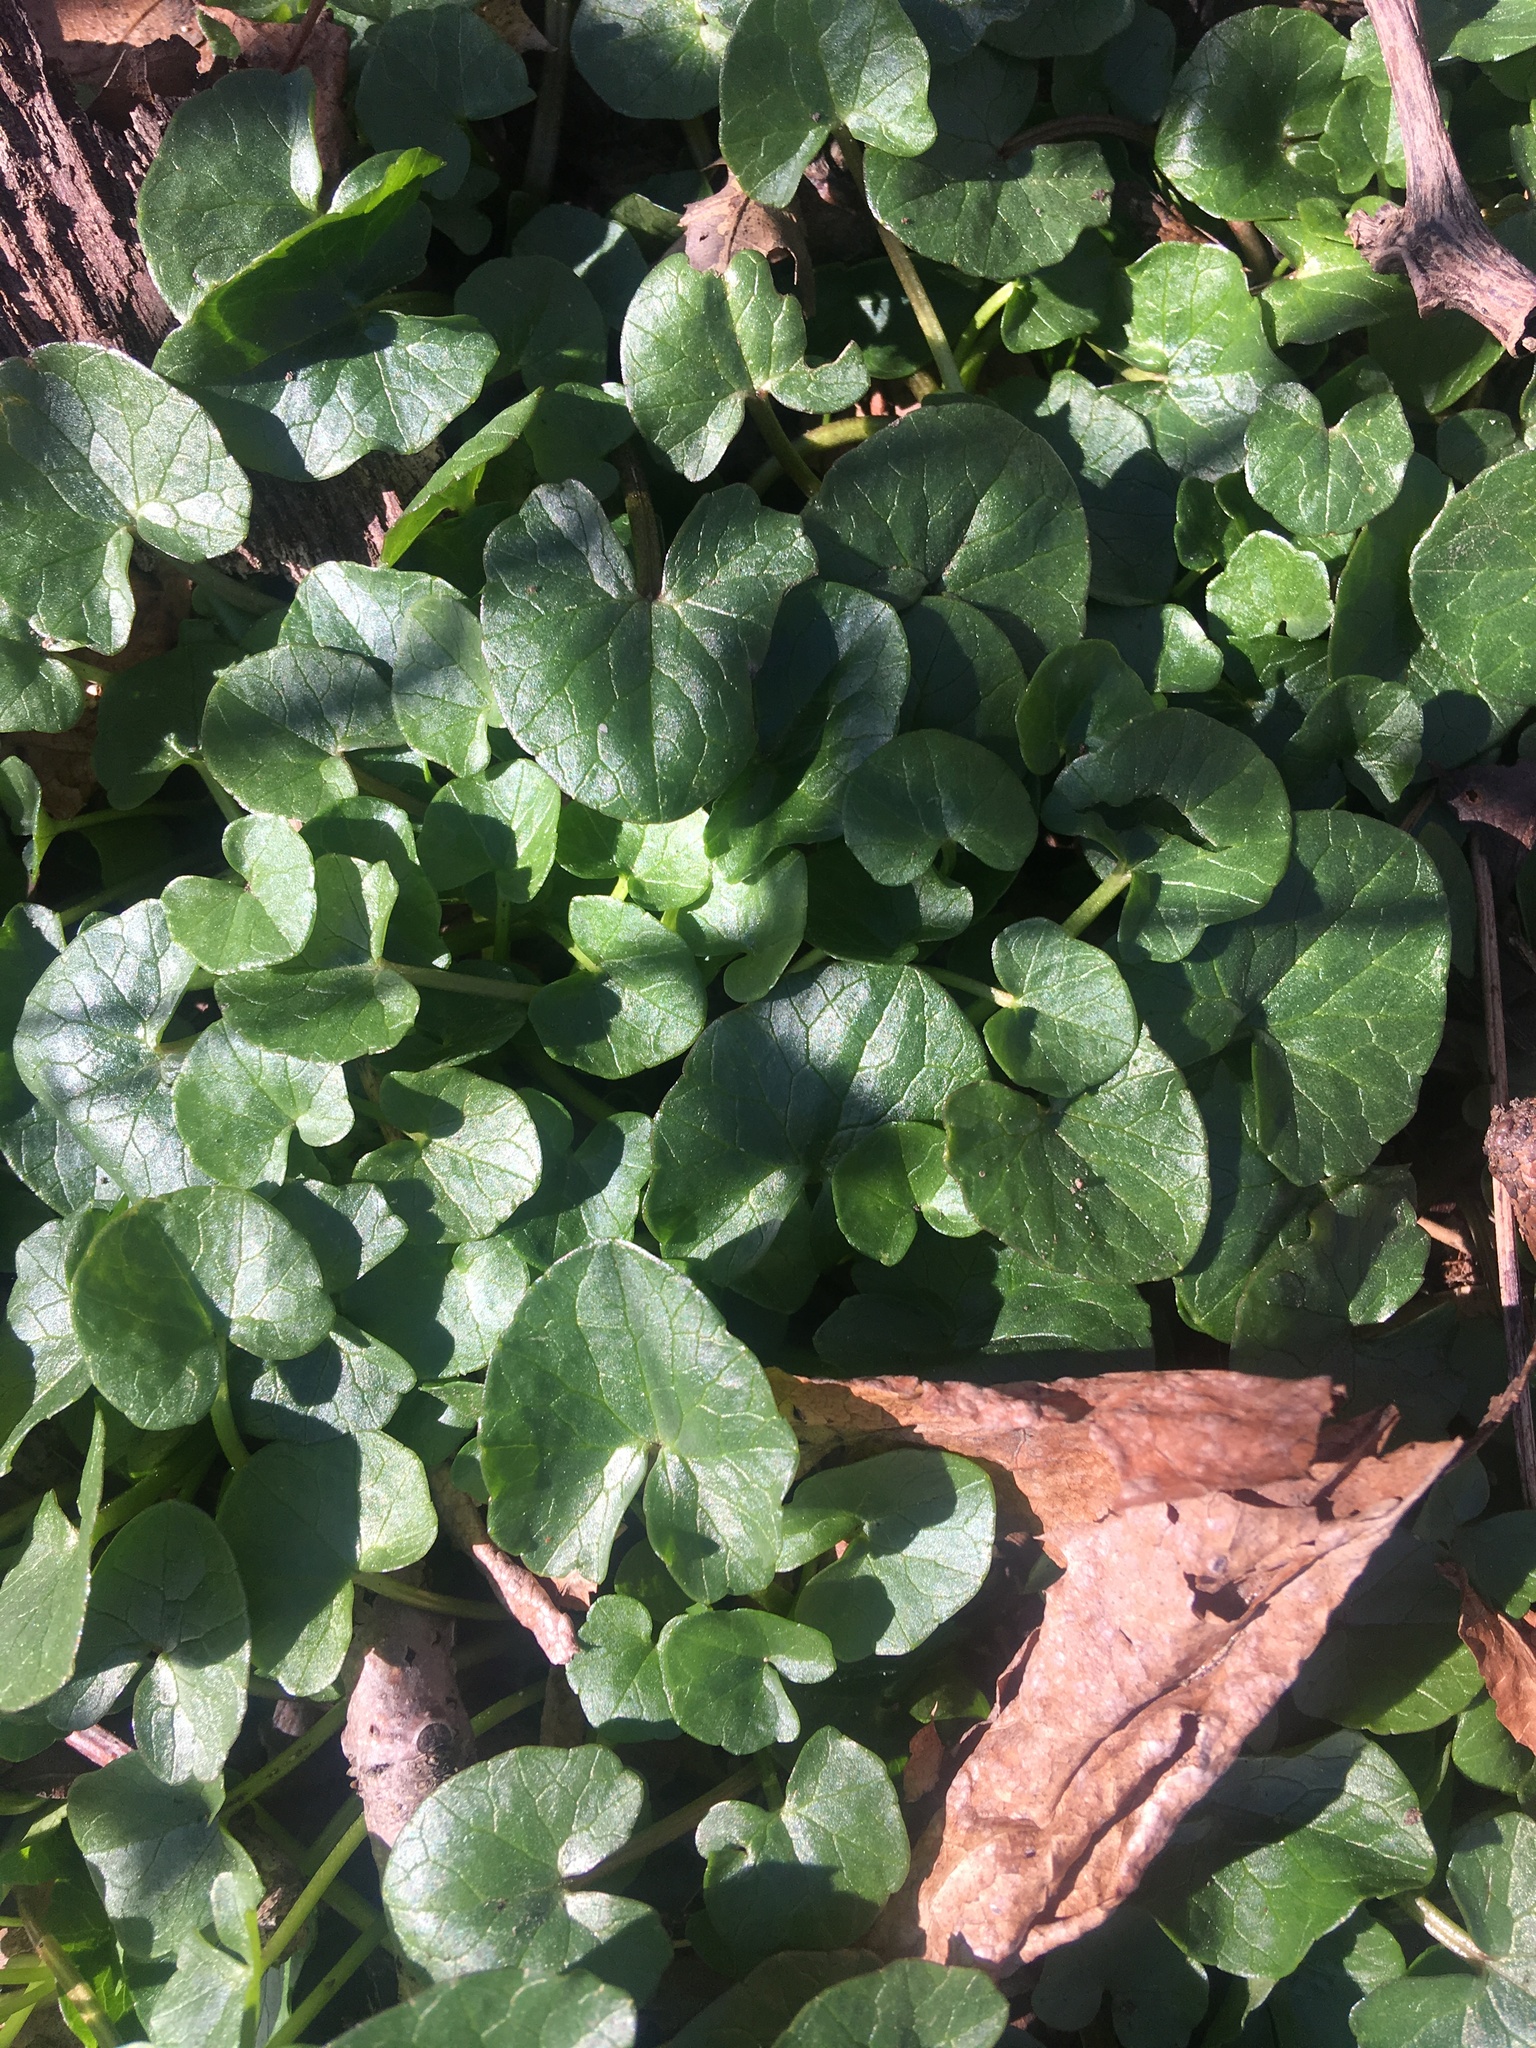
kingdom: Plantae
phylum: Tracheophyta
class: Magnoliopsida
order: Ranunculales
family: Ranunculaceae
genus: Ficaria
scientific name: Ficaria verna
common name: Lesser celandine
